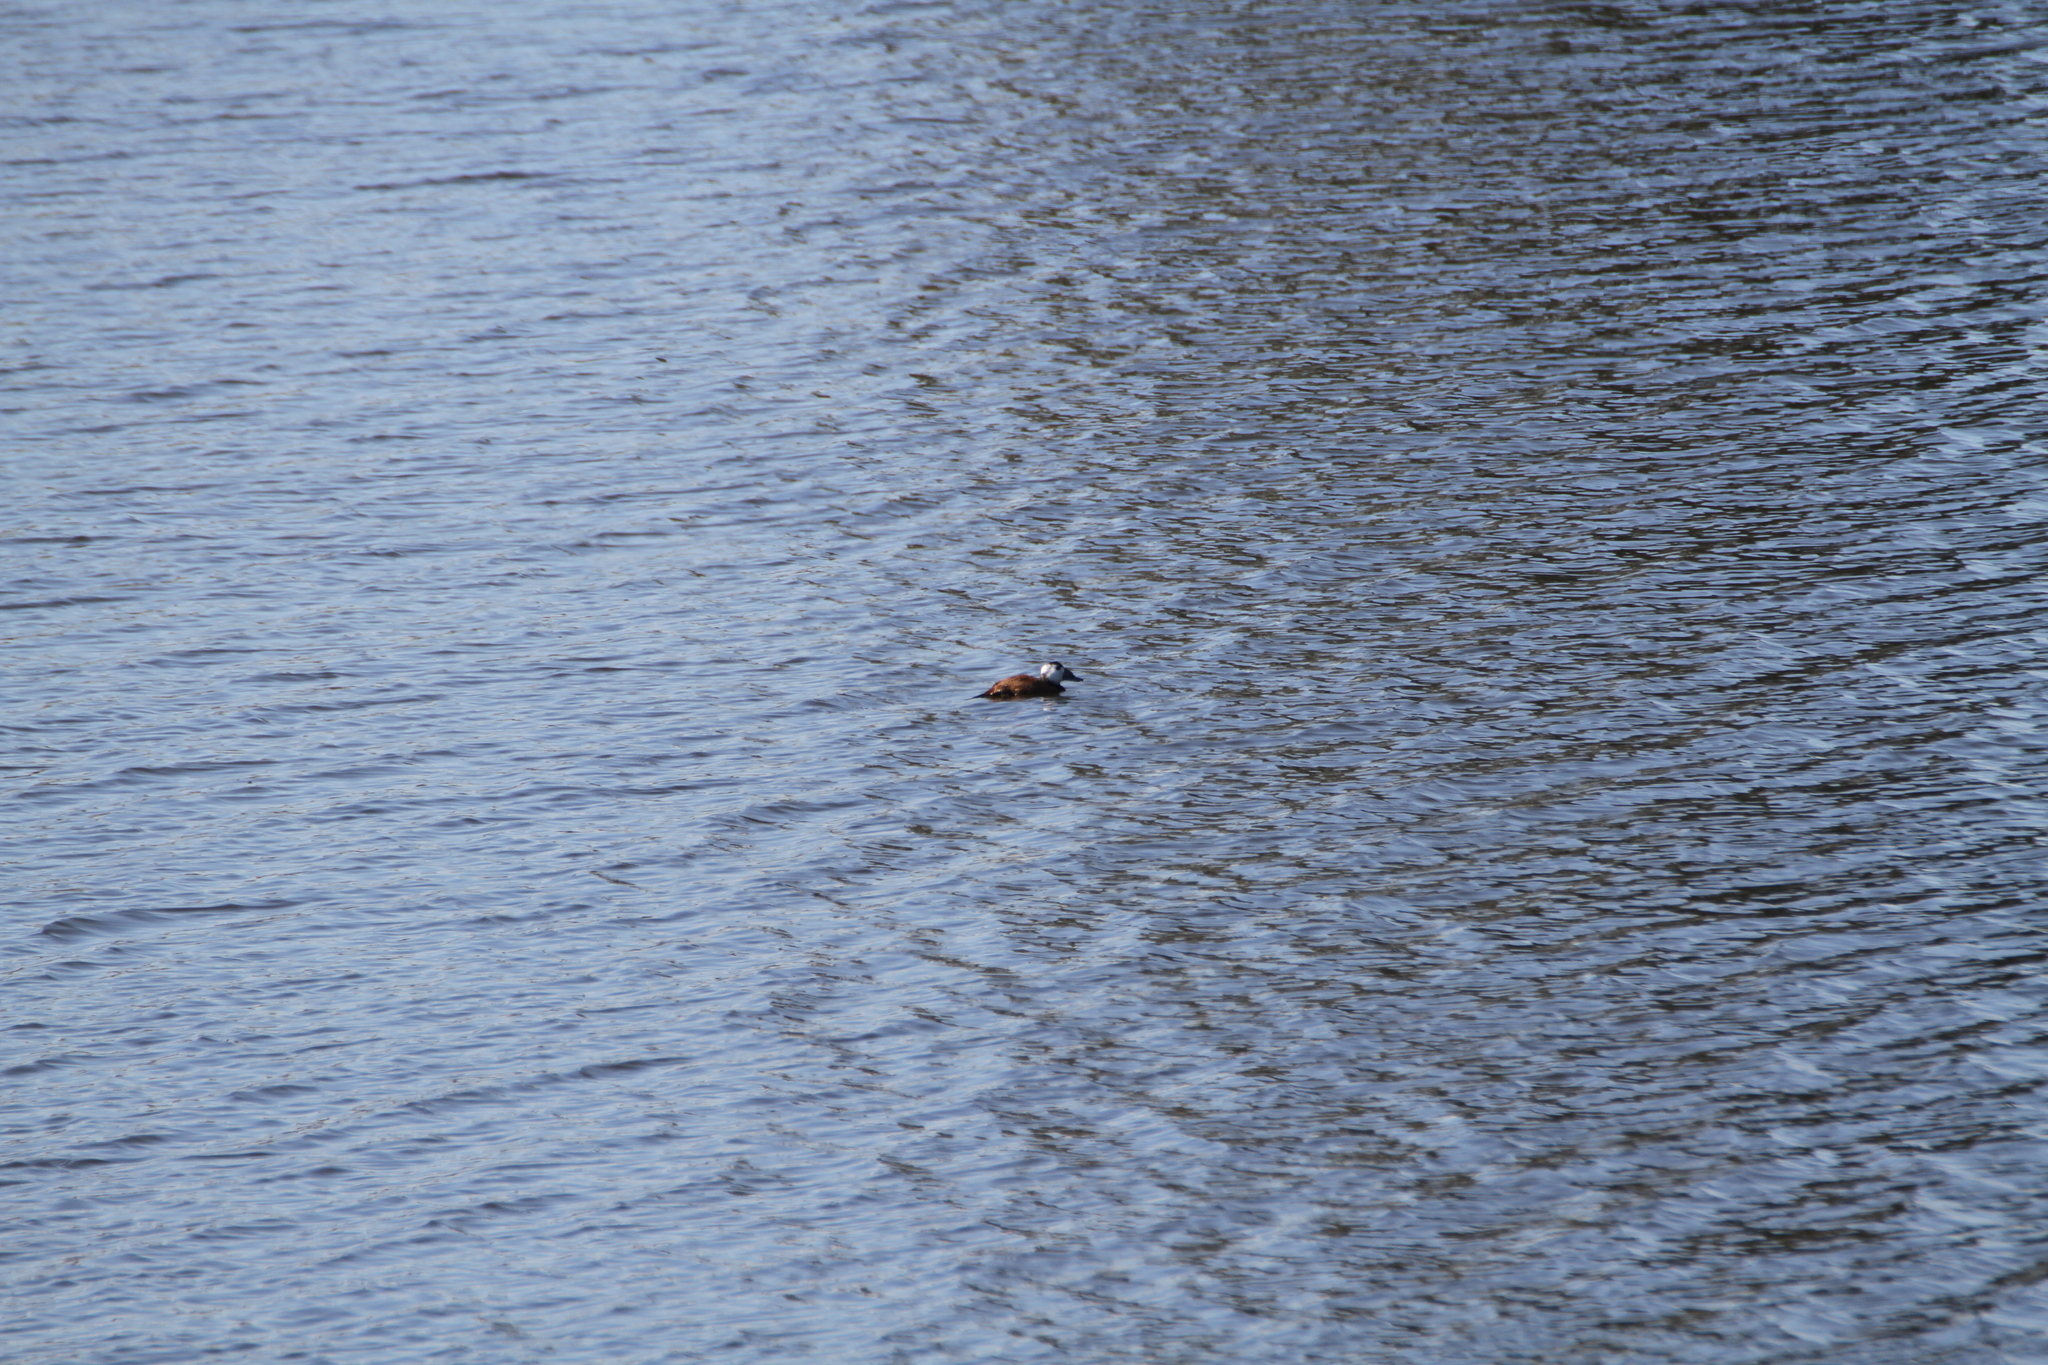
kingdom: Animalia
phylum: Chordata
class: Aves
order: Anseriformes
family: Anatidae
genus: Oxyura
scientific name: Oxyura leucocephala
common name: White-headed duck
